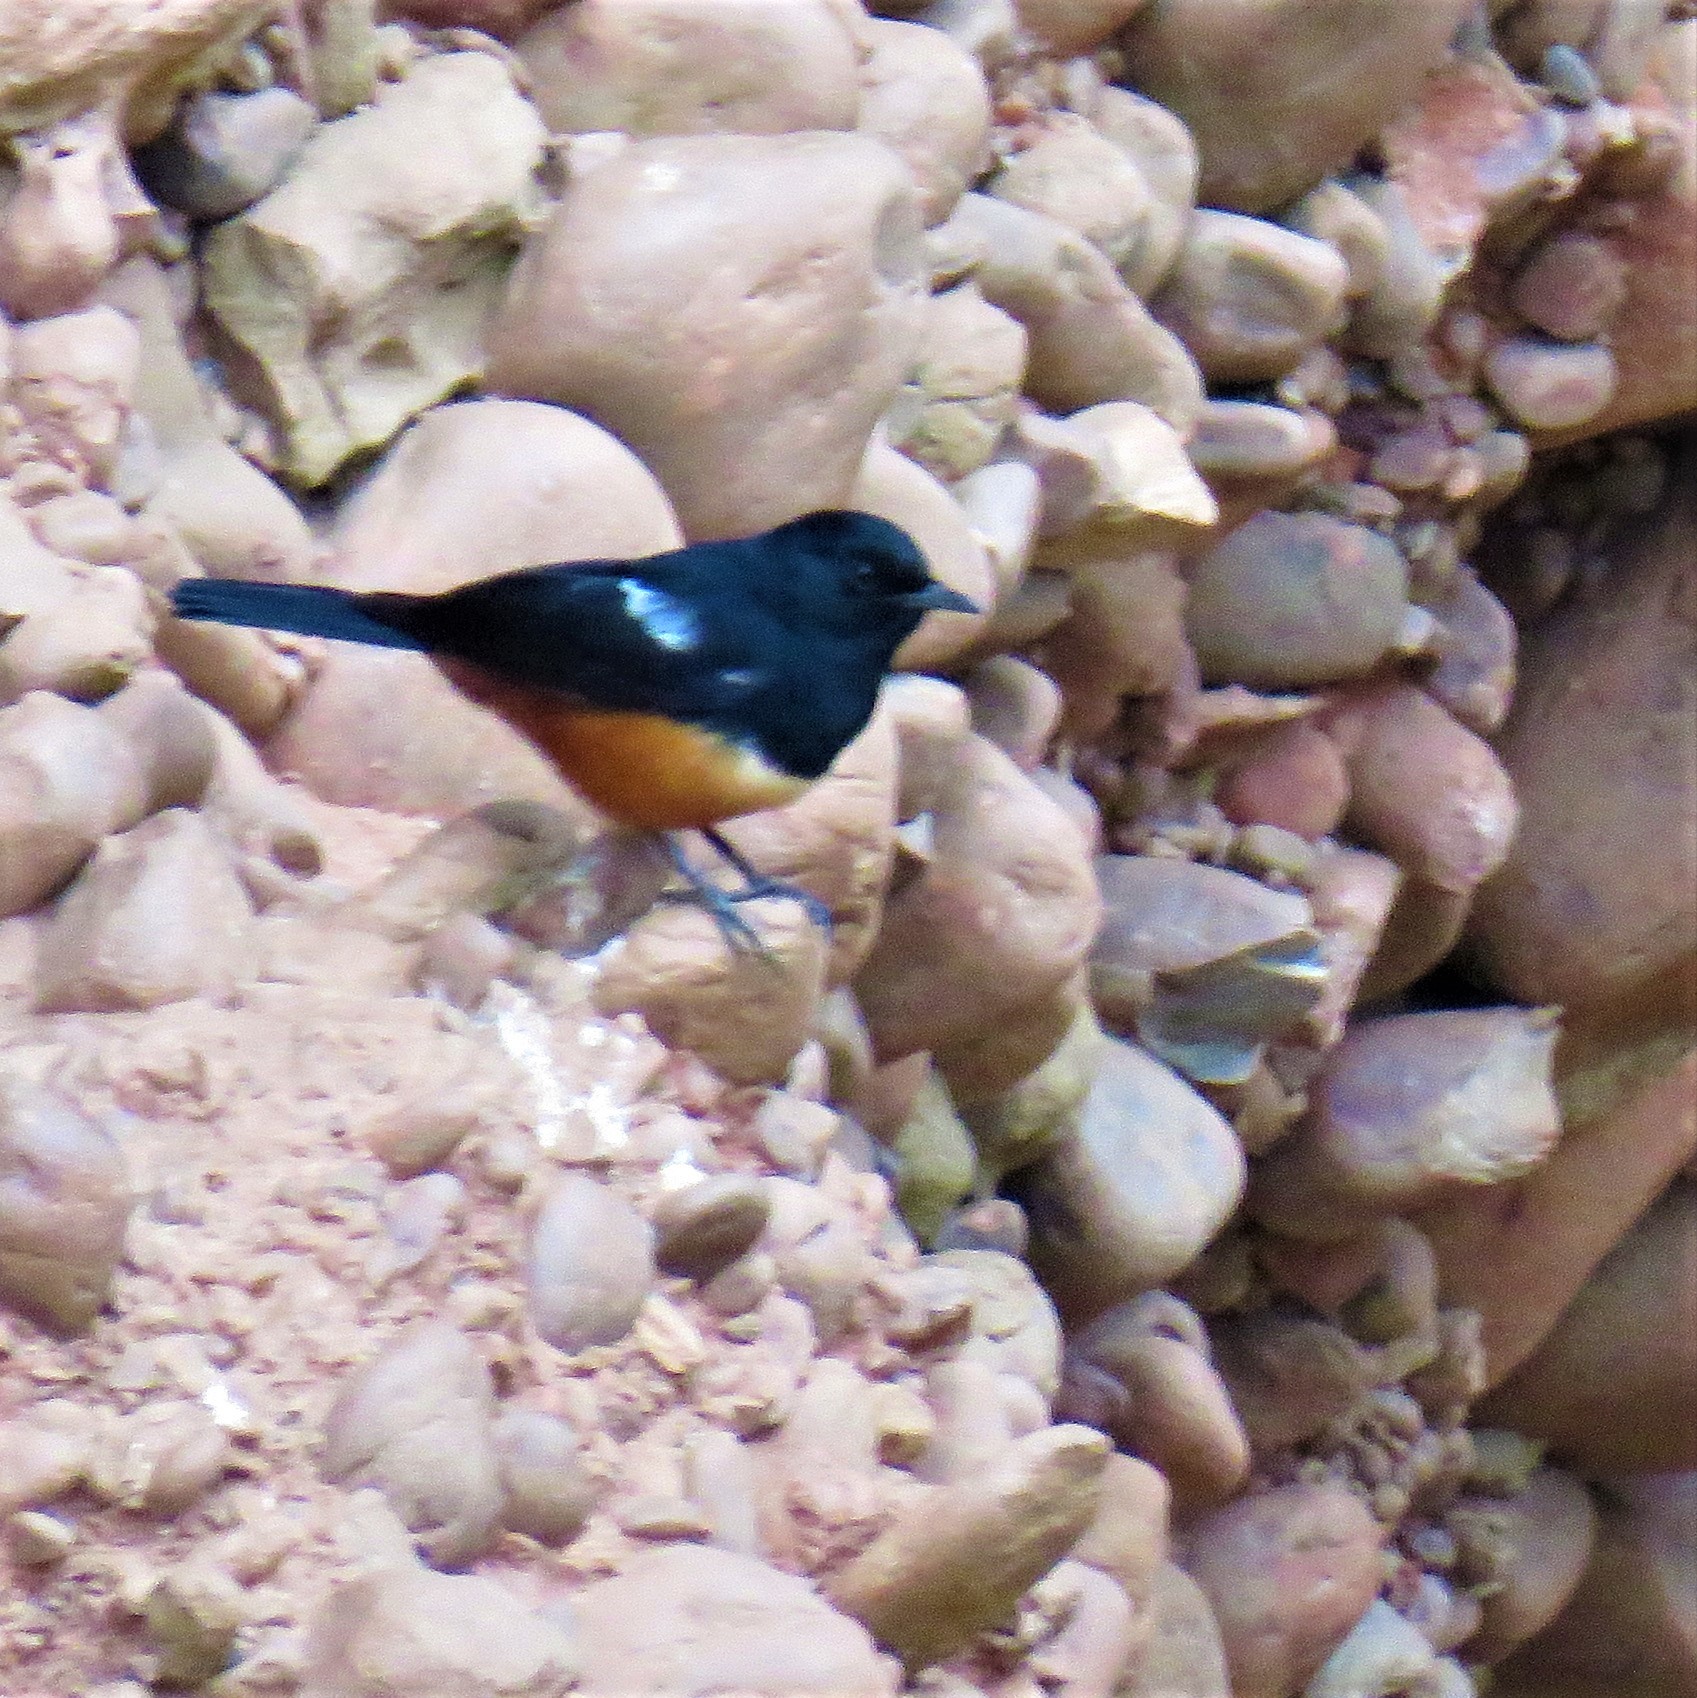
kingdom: Animalia
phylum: Chordata
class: Aves
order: Passeriformes
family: Muscicapidae
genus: Thamnolaea
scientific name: Thamnolaea cinnamomeiventris
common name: Mocking cliff chat
